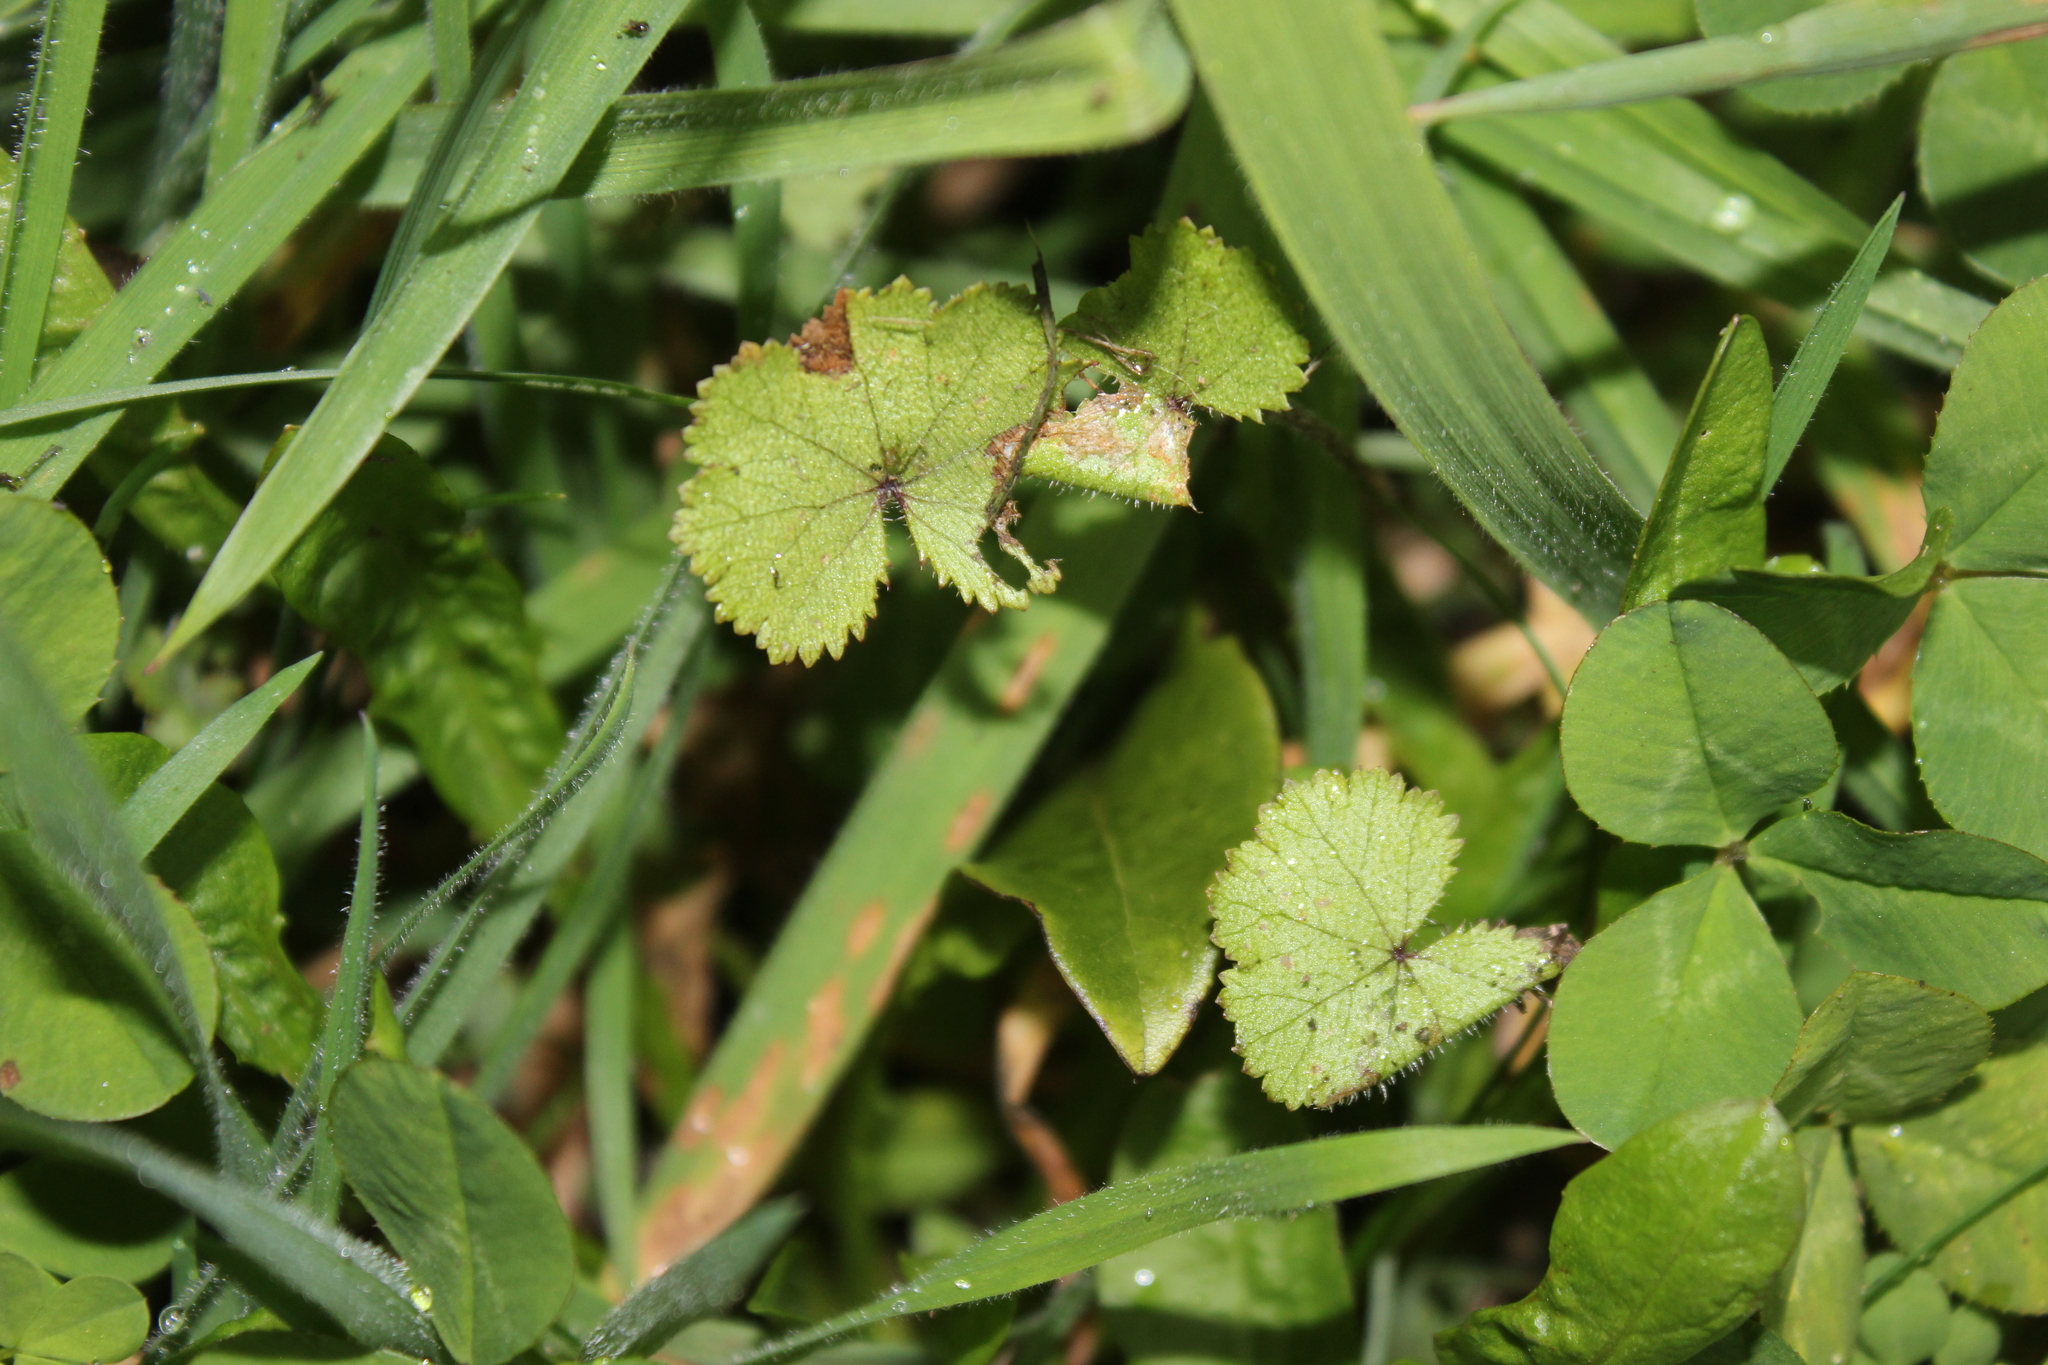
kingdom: Plantae
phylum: Tracheophyta
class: Magnoliopsida
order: Apiales
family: Araliaceae
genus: Hydrocotyle
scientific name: Hydrocotyle moschata
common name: Hairy pennywort
